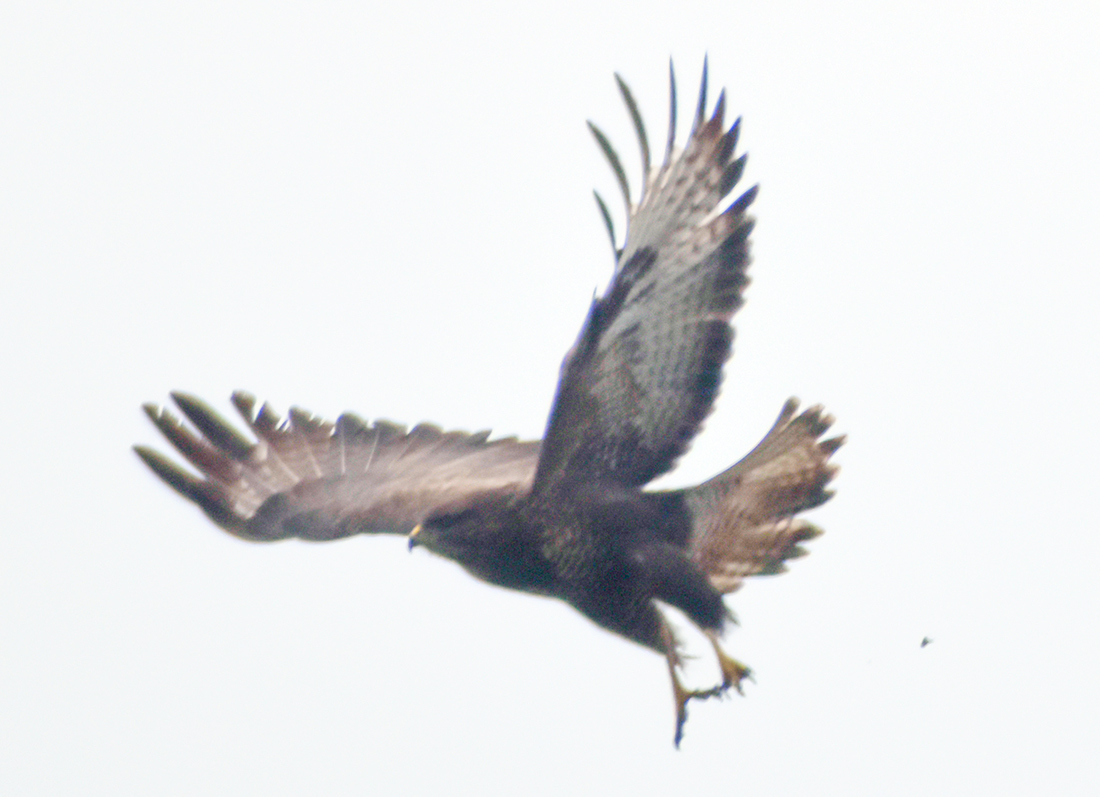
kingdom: Animalia
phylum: Chordata
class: Aves
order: Accipitriformes
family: Accipitridae
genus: Buteo
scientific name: Buteo buteo
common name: Common buzzard
